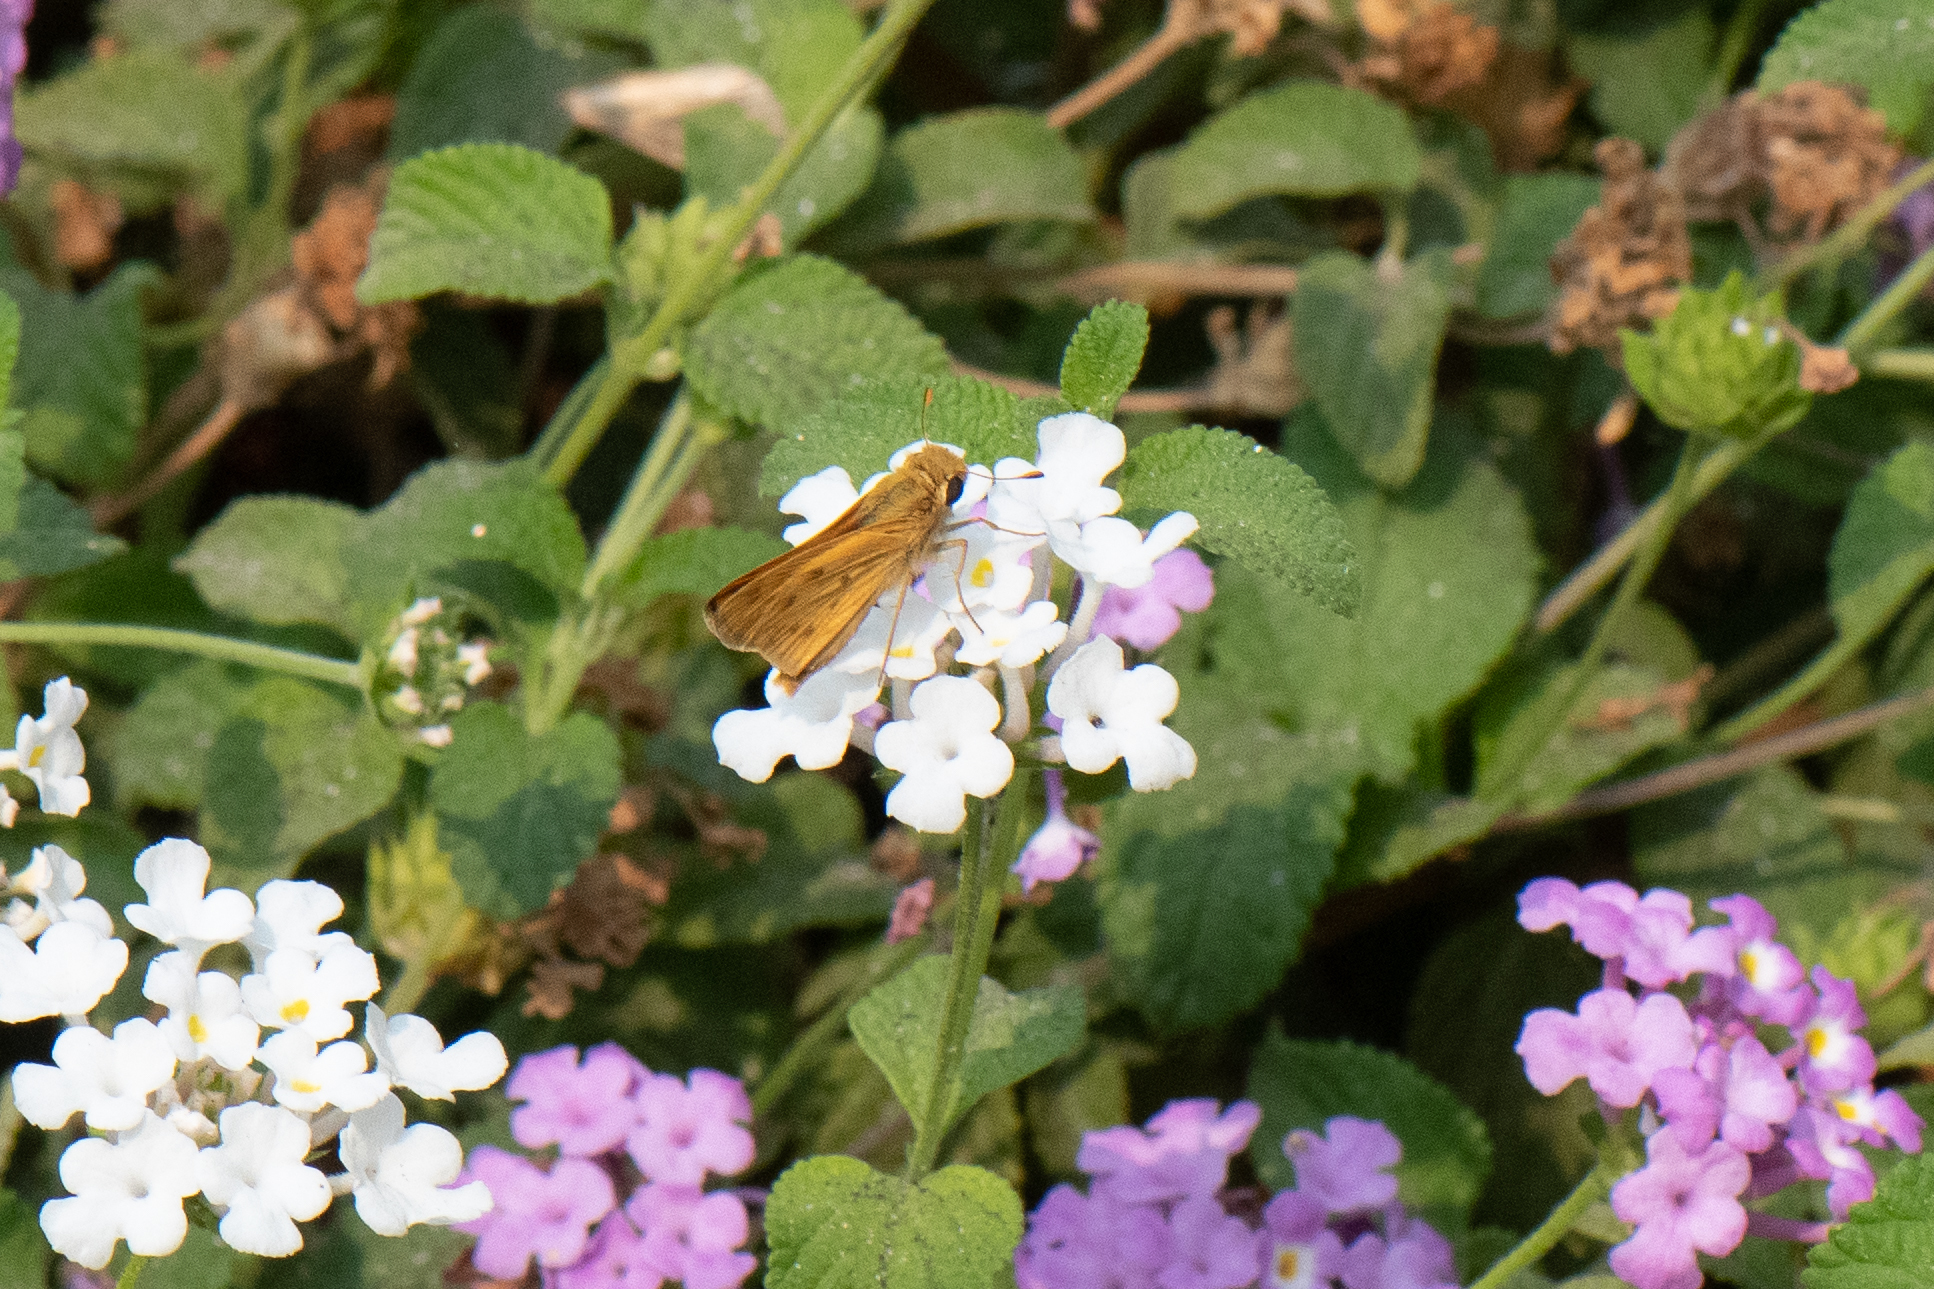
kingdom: Animalia
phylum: Arthropoda
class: Insecta
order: Lepidoptera
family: Hesperiidae
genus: Hylephila
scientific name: Hylephila phyleus
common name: Fiery skipper
